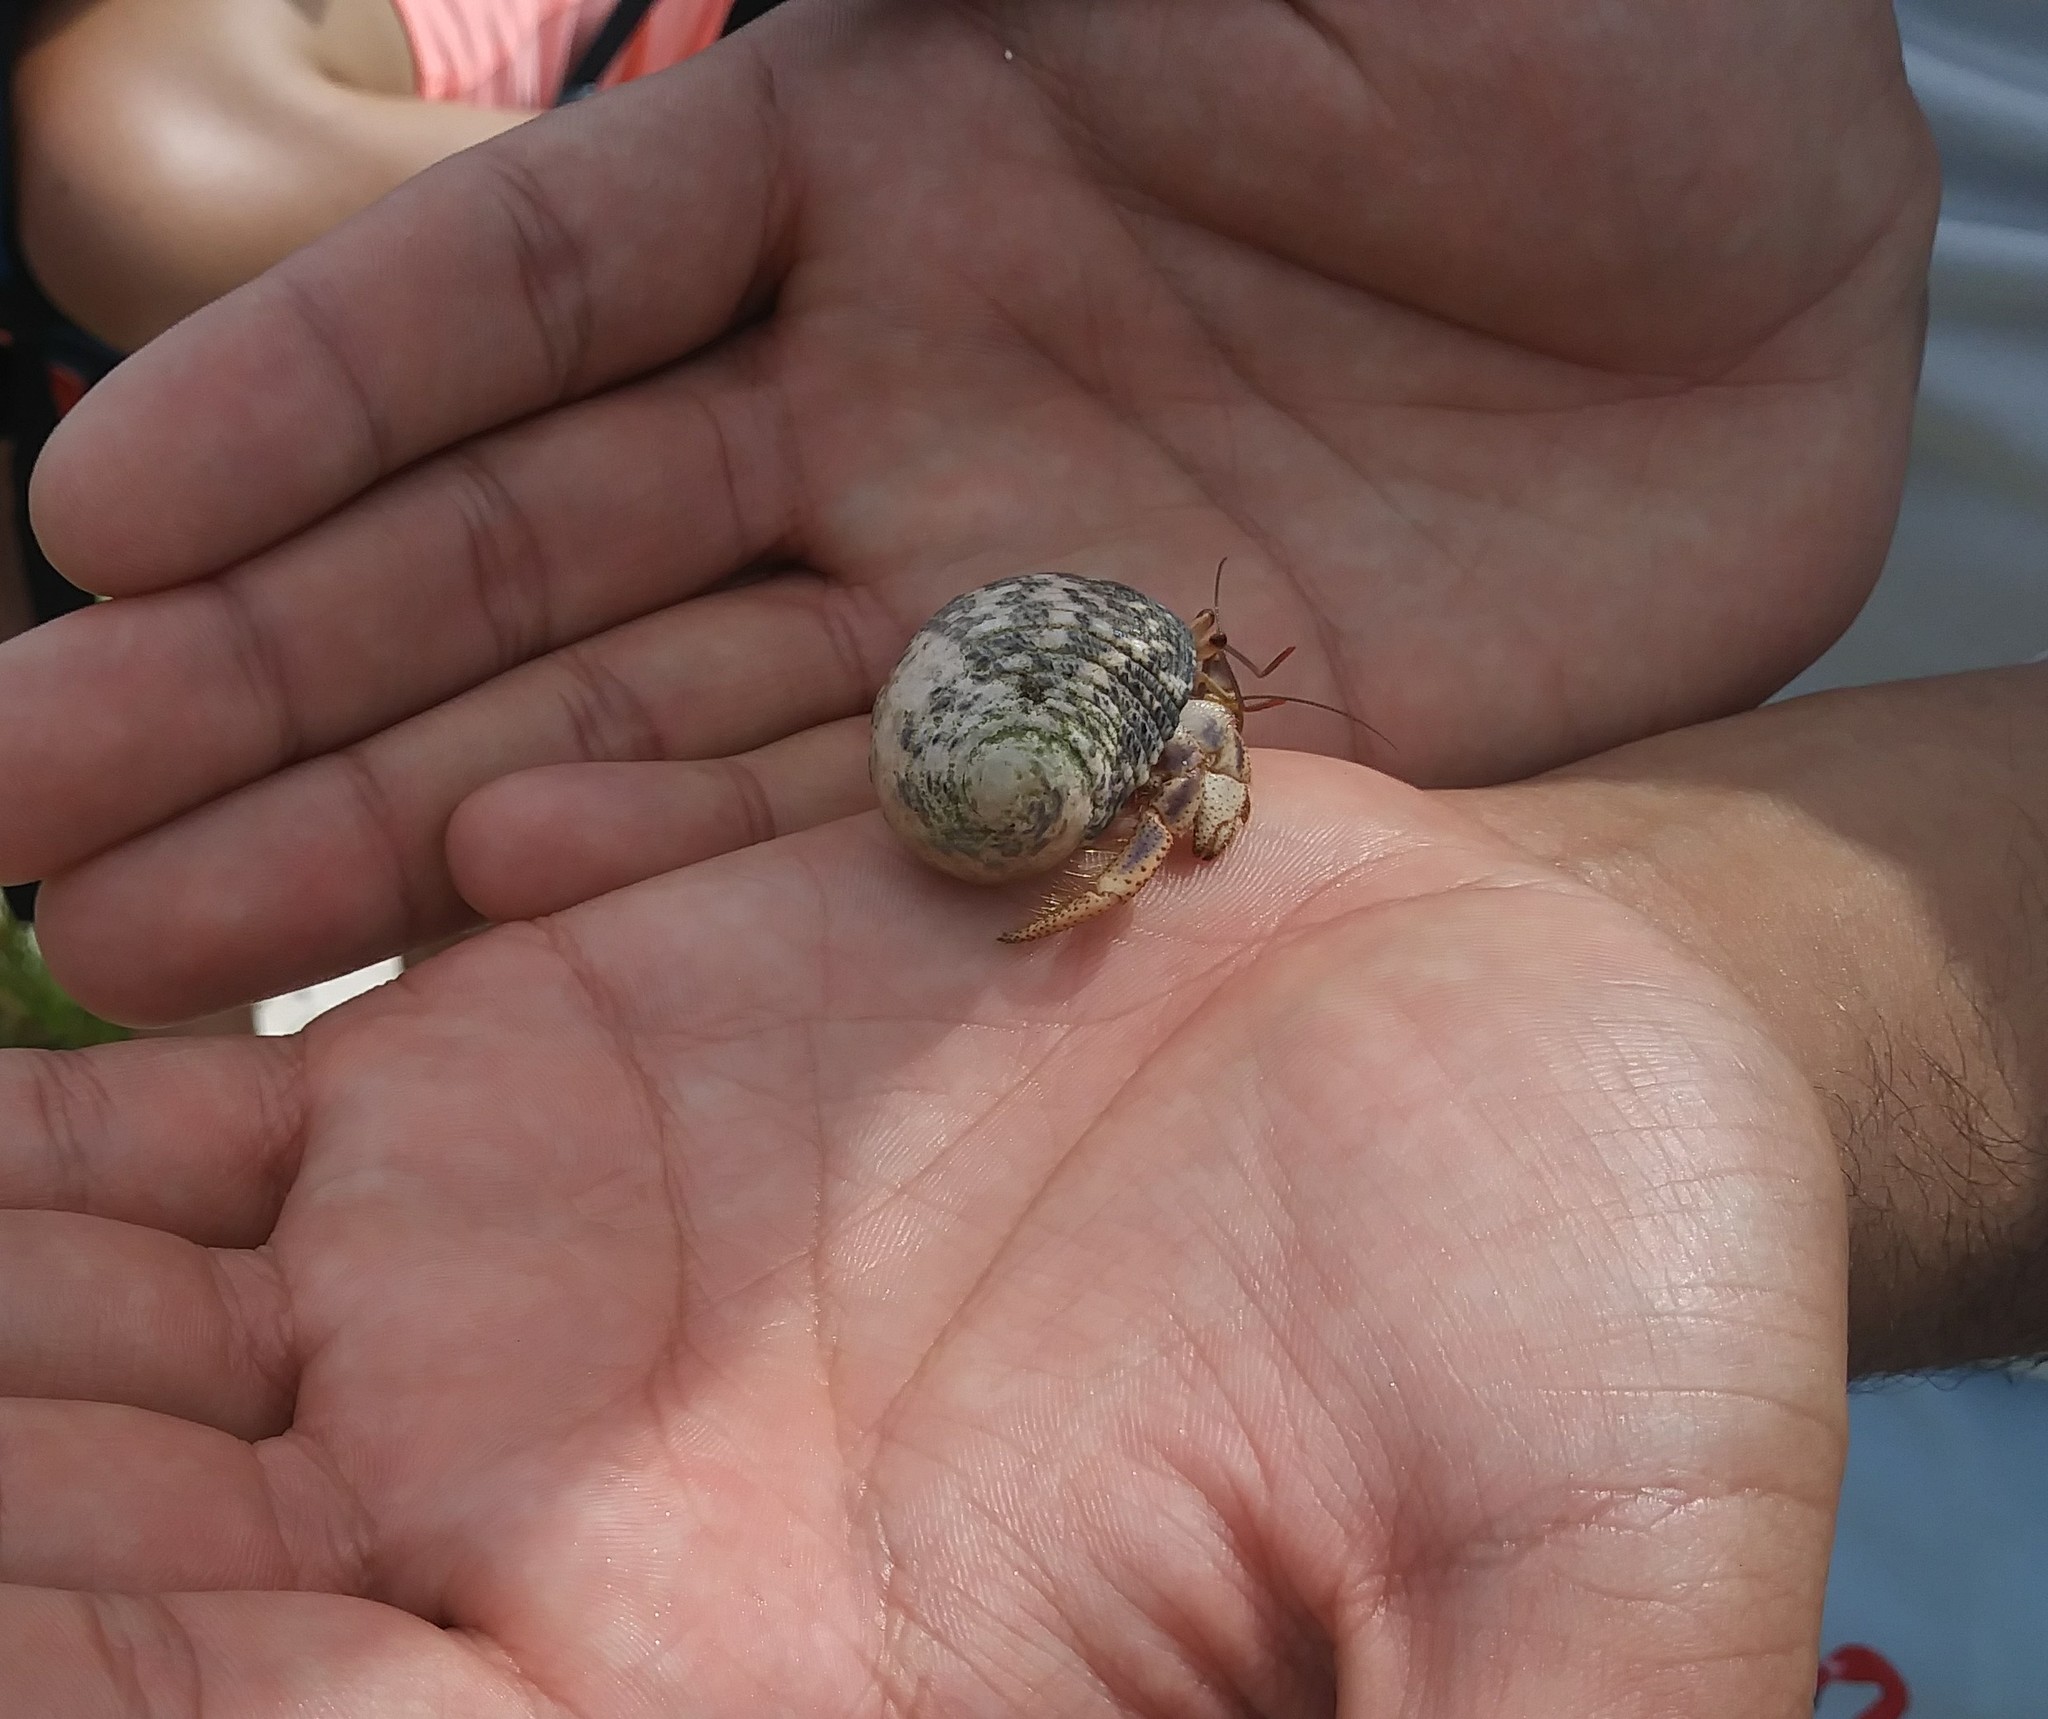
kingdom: Animalia
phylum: Arthropoda
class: Malacostraca
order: Decapoda
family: Coenobitidae
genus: Coenobita
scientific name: Coenobita clypeatus
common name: Caribbean hermit crab
